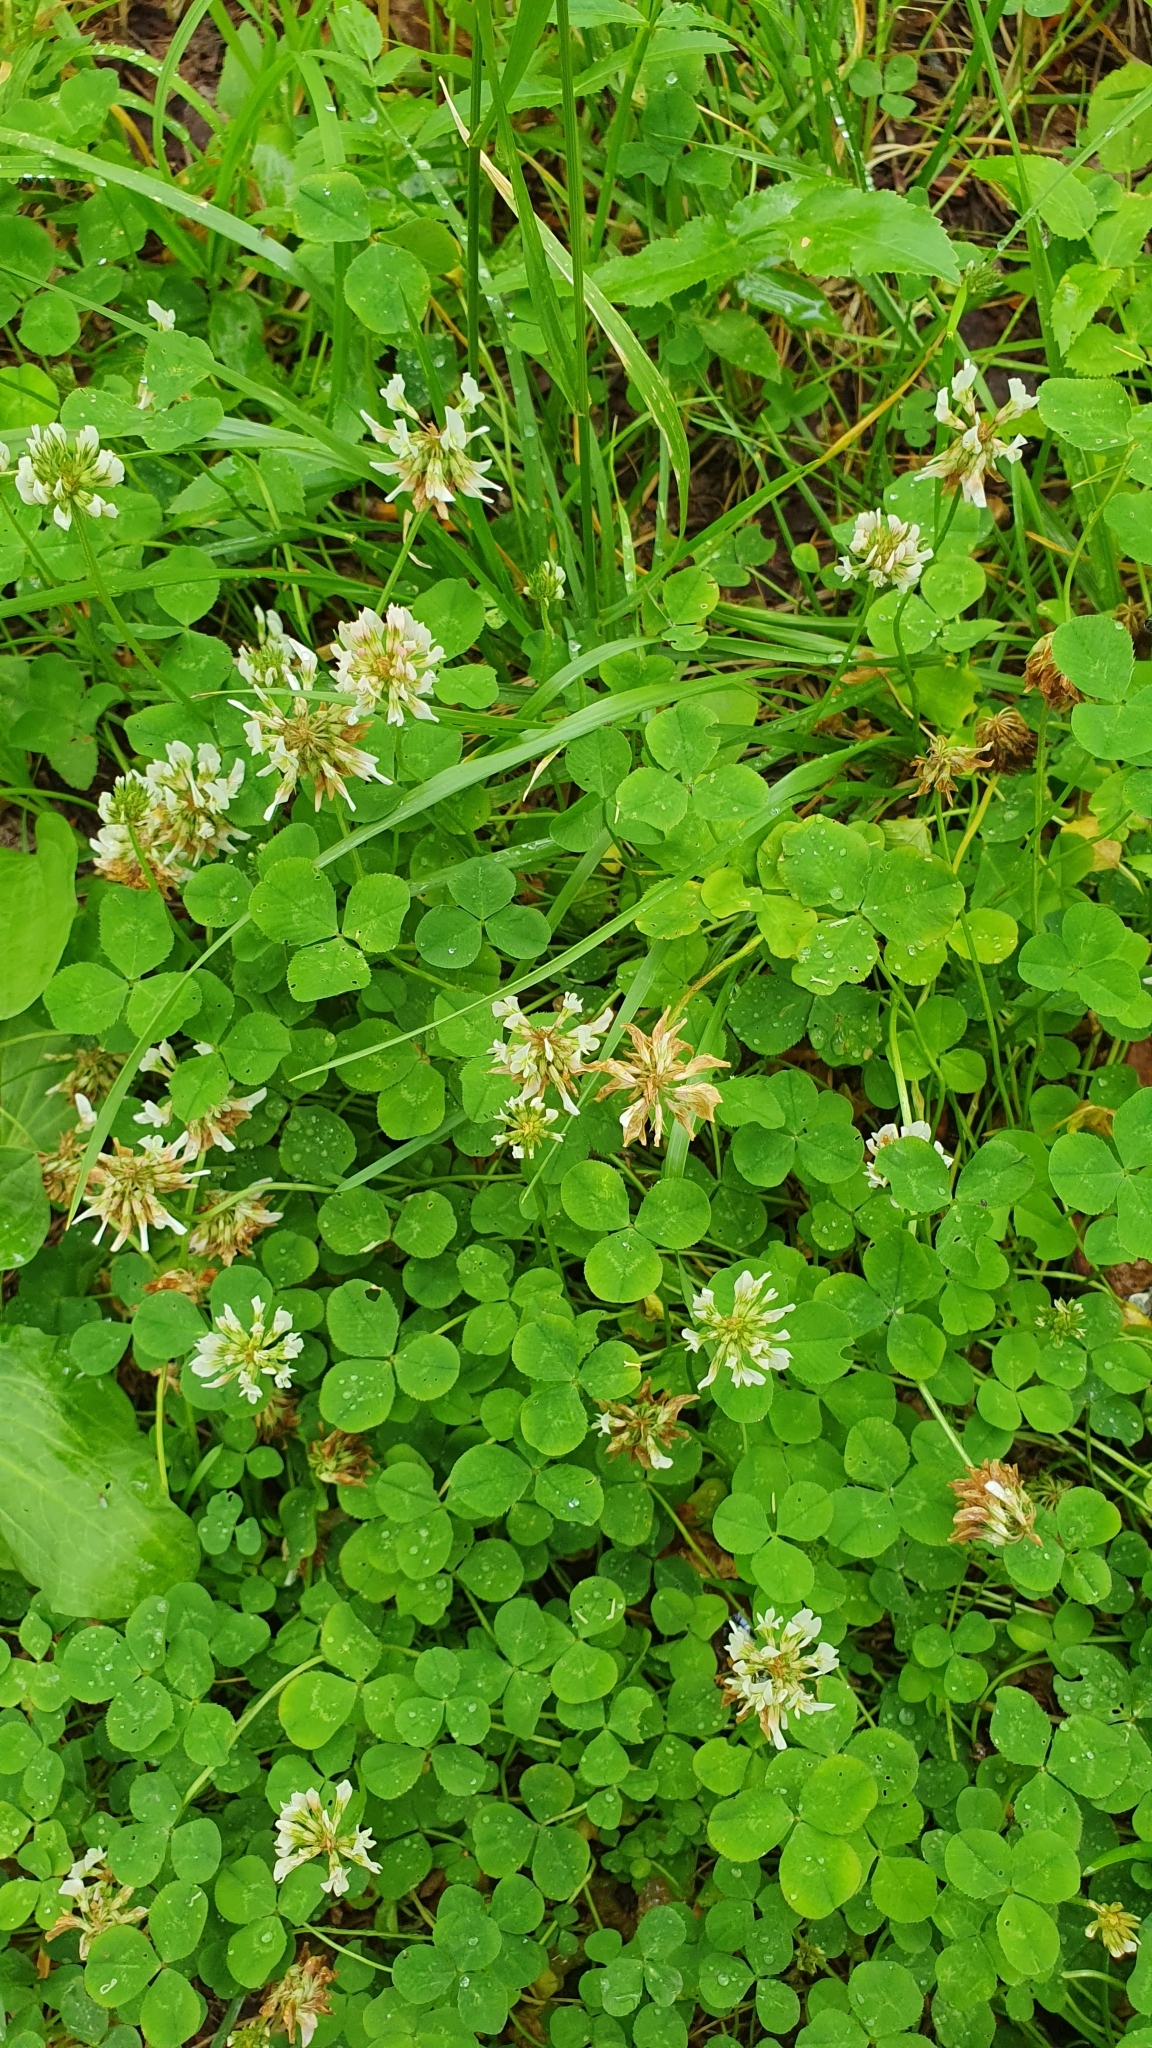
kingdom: Plantae
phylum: Tracheophyta
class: Magnoliopsida
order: Fabales
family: Fabaceae
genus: Trifolium
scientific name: Trifolium repens
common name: White clover
